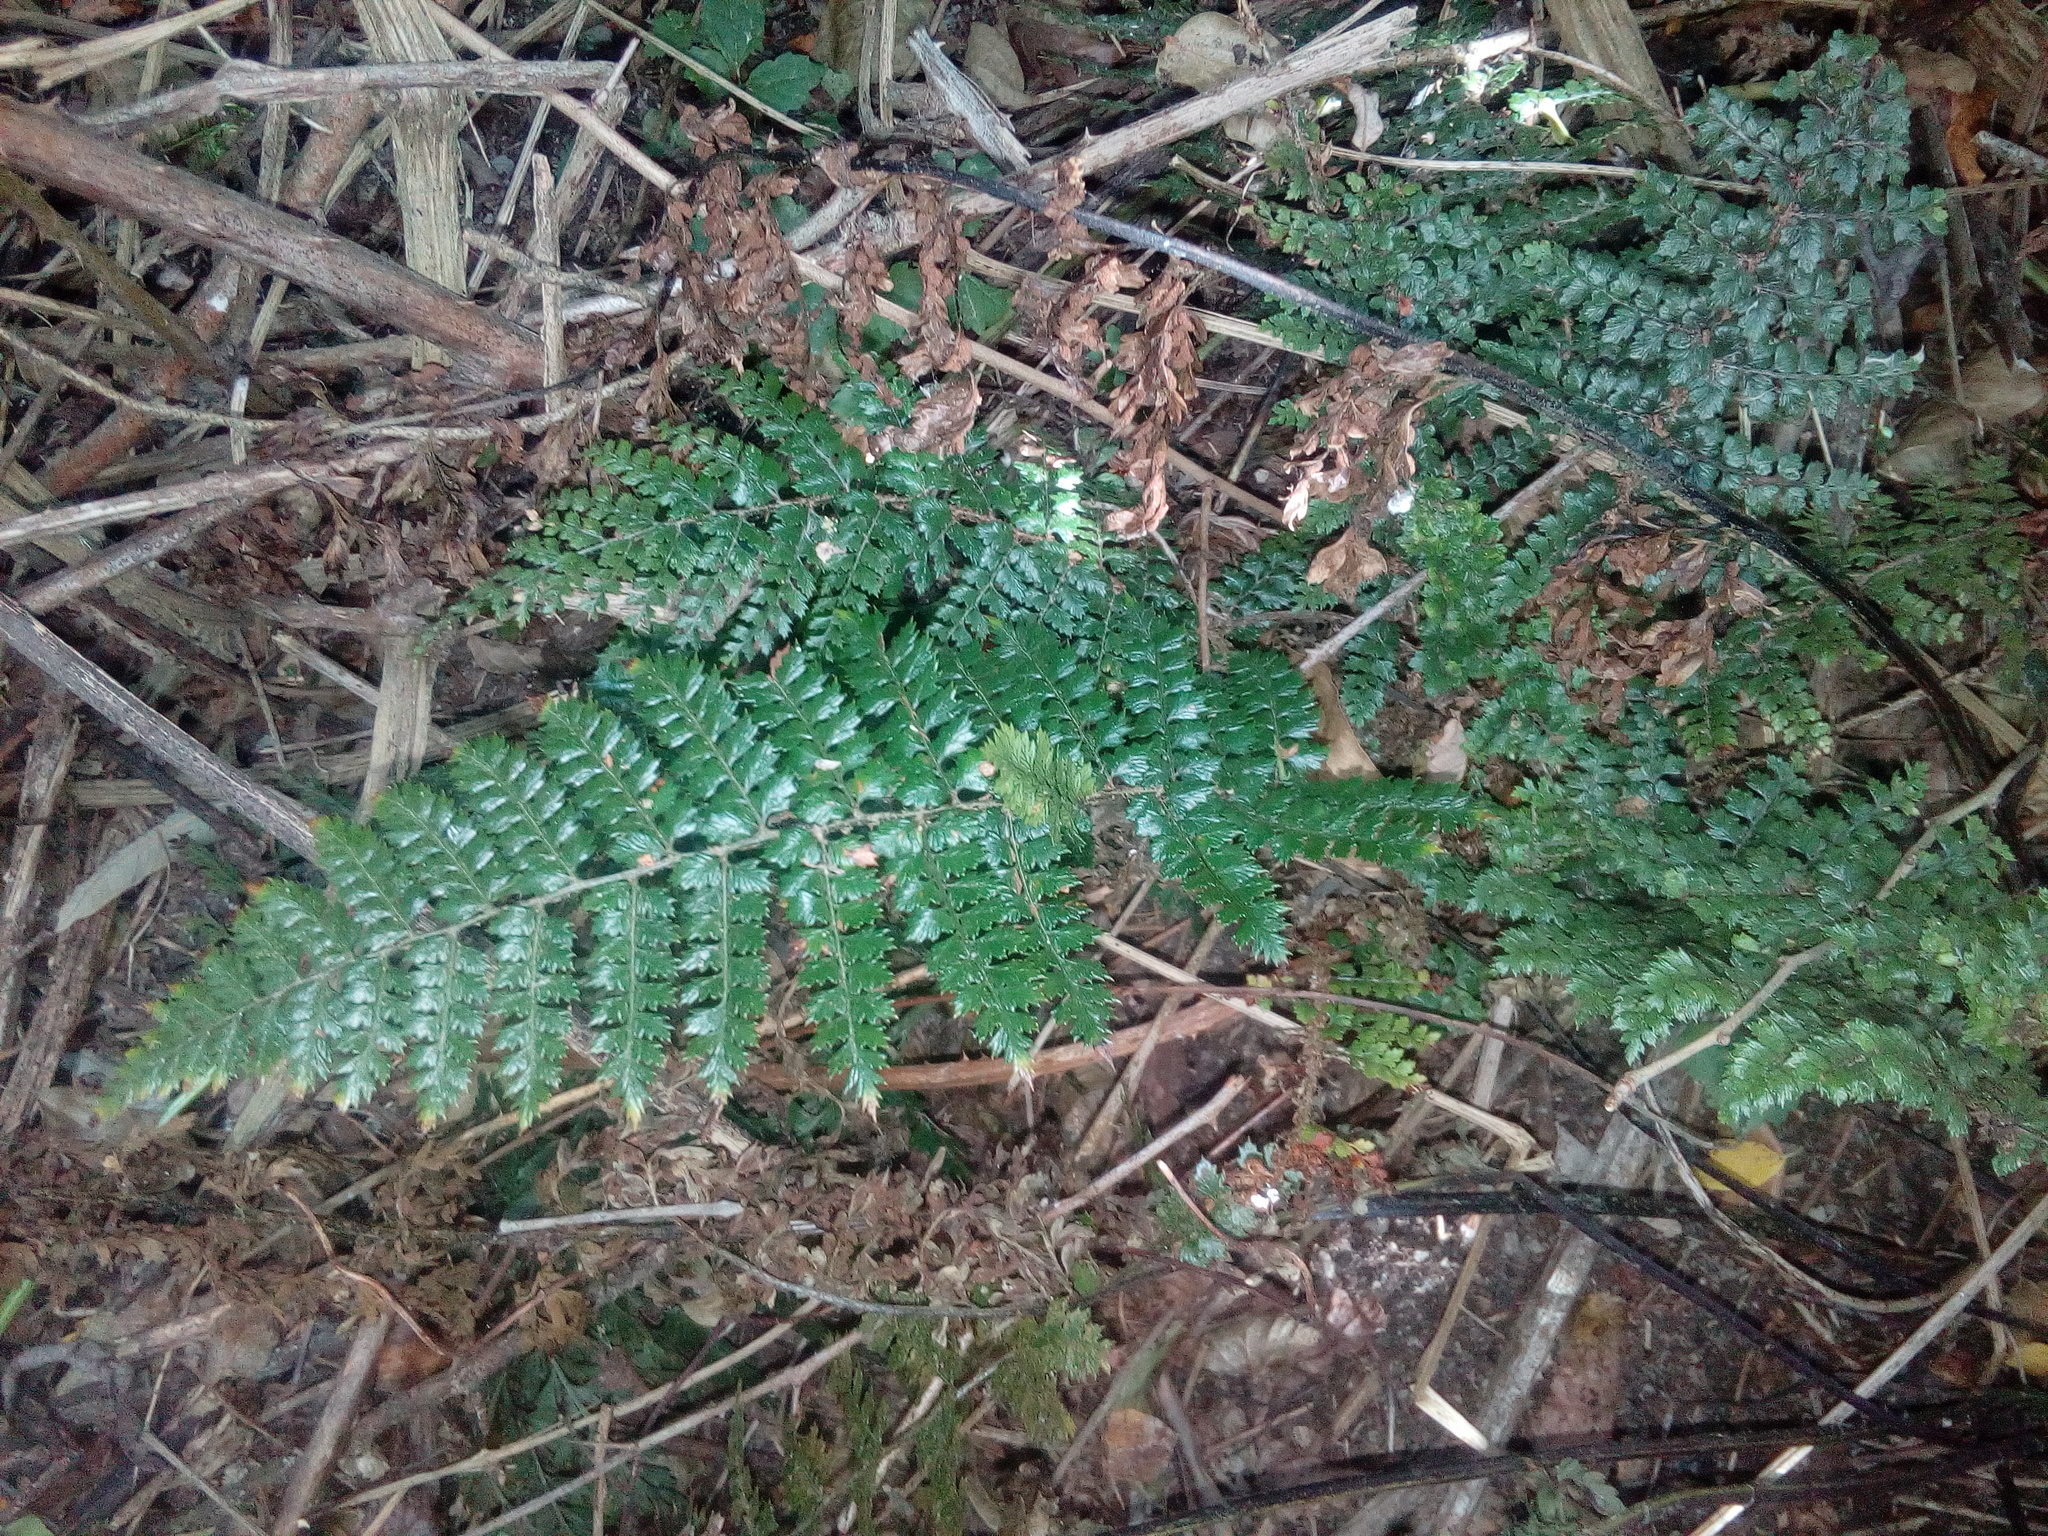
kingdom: Plantae
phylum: Tracheophyta
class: Polypodiopsida
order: Polypodiales
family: Dryopteridaceae
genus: Polystichum
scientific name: Polystichum vestitum
